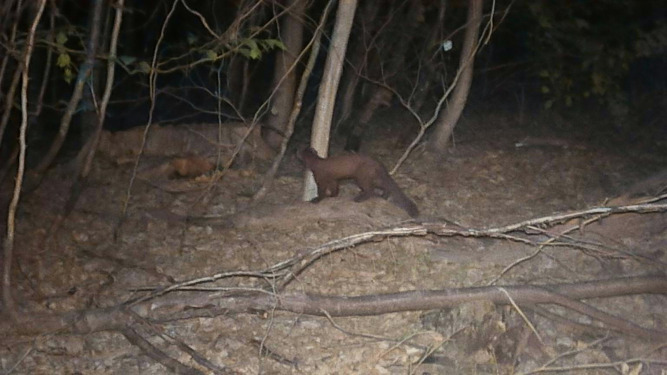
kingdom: Animalia
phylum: Chordata
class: Mammalia
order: Carnivora
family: Mustelidae
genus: Martes
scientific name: Martes martes
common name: European pine marten
